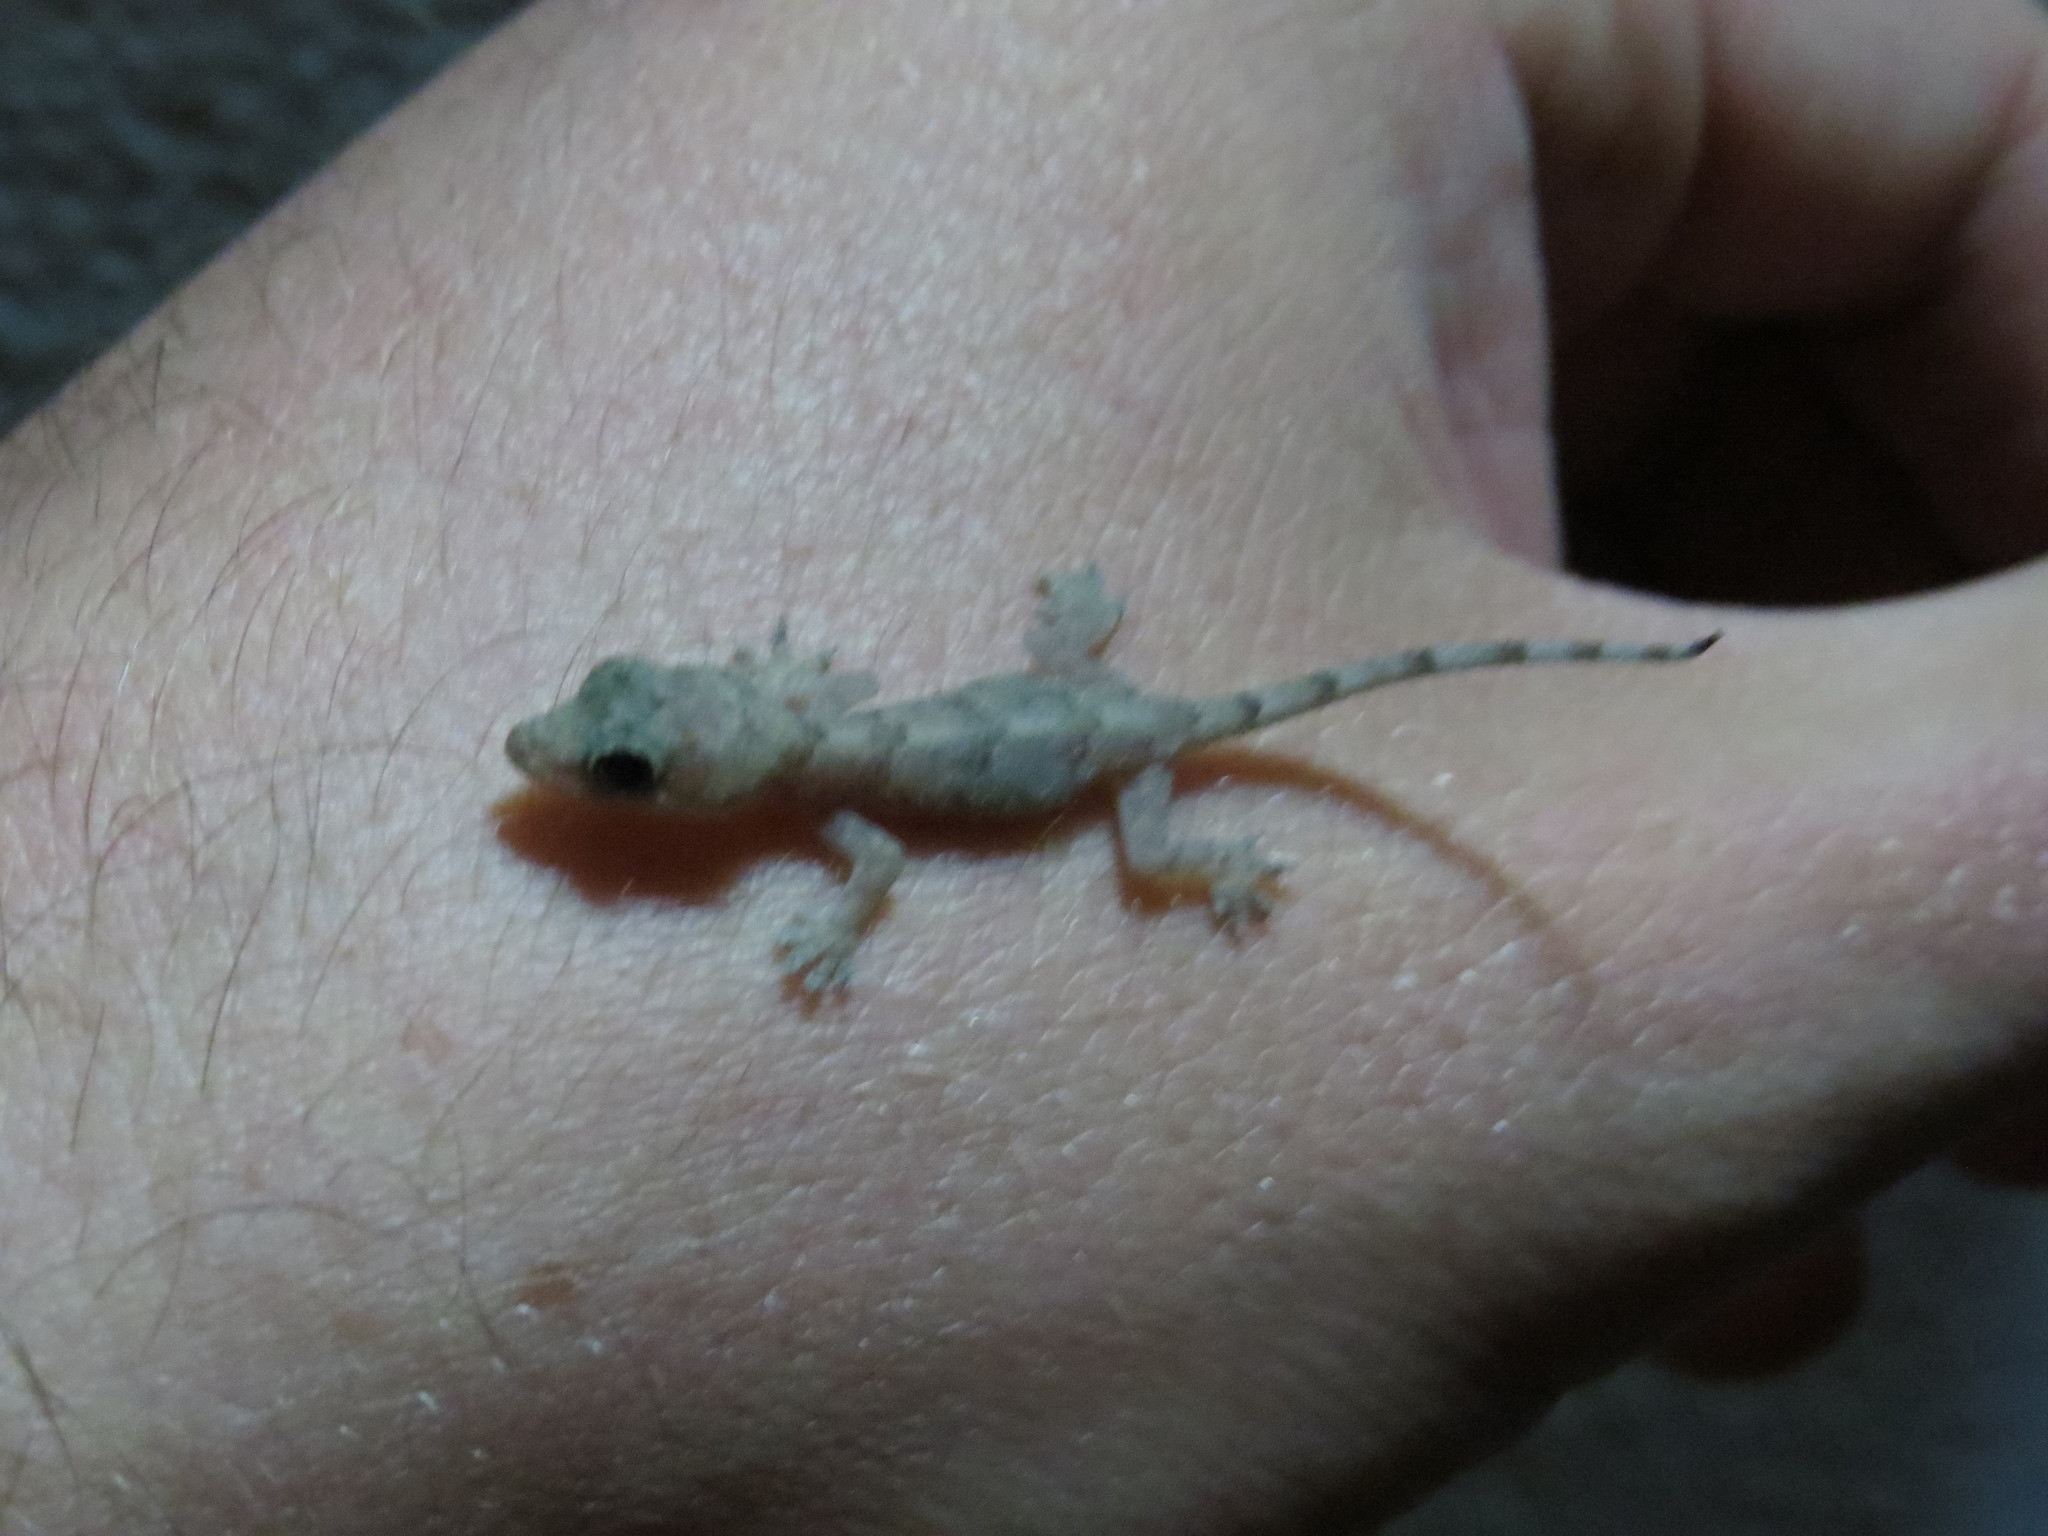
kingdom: Animalia
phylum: Chordata
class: Squamata
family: Gekkonidae
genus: Hemidactylus
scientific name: Hemidactylus mabouia
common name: House gecko
